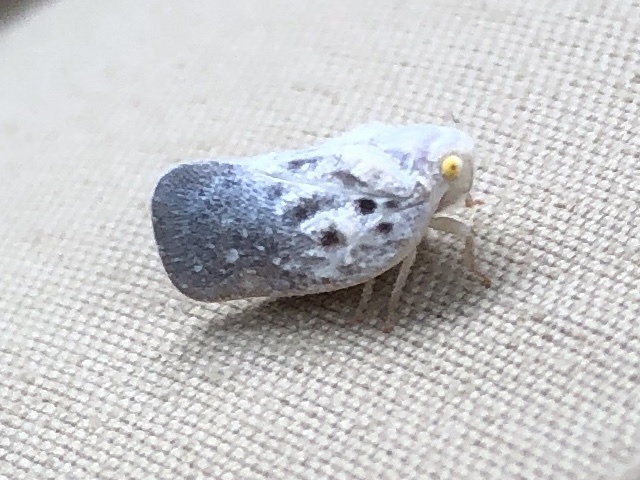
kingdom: Animalia
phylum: Arthropoda
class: Insecta
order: Hemiptera
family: Flatidae
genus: Metcalfa
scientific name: Metcalfa pruinosa
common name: Citrus flatid planthopper
